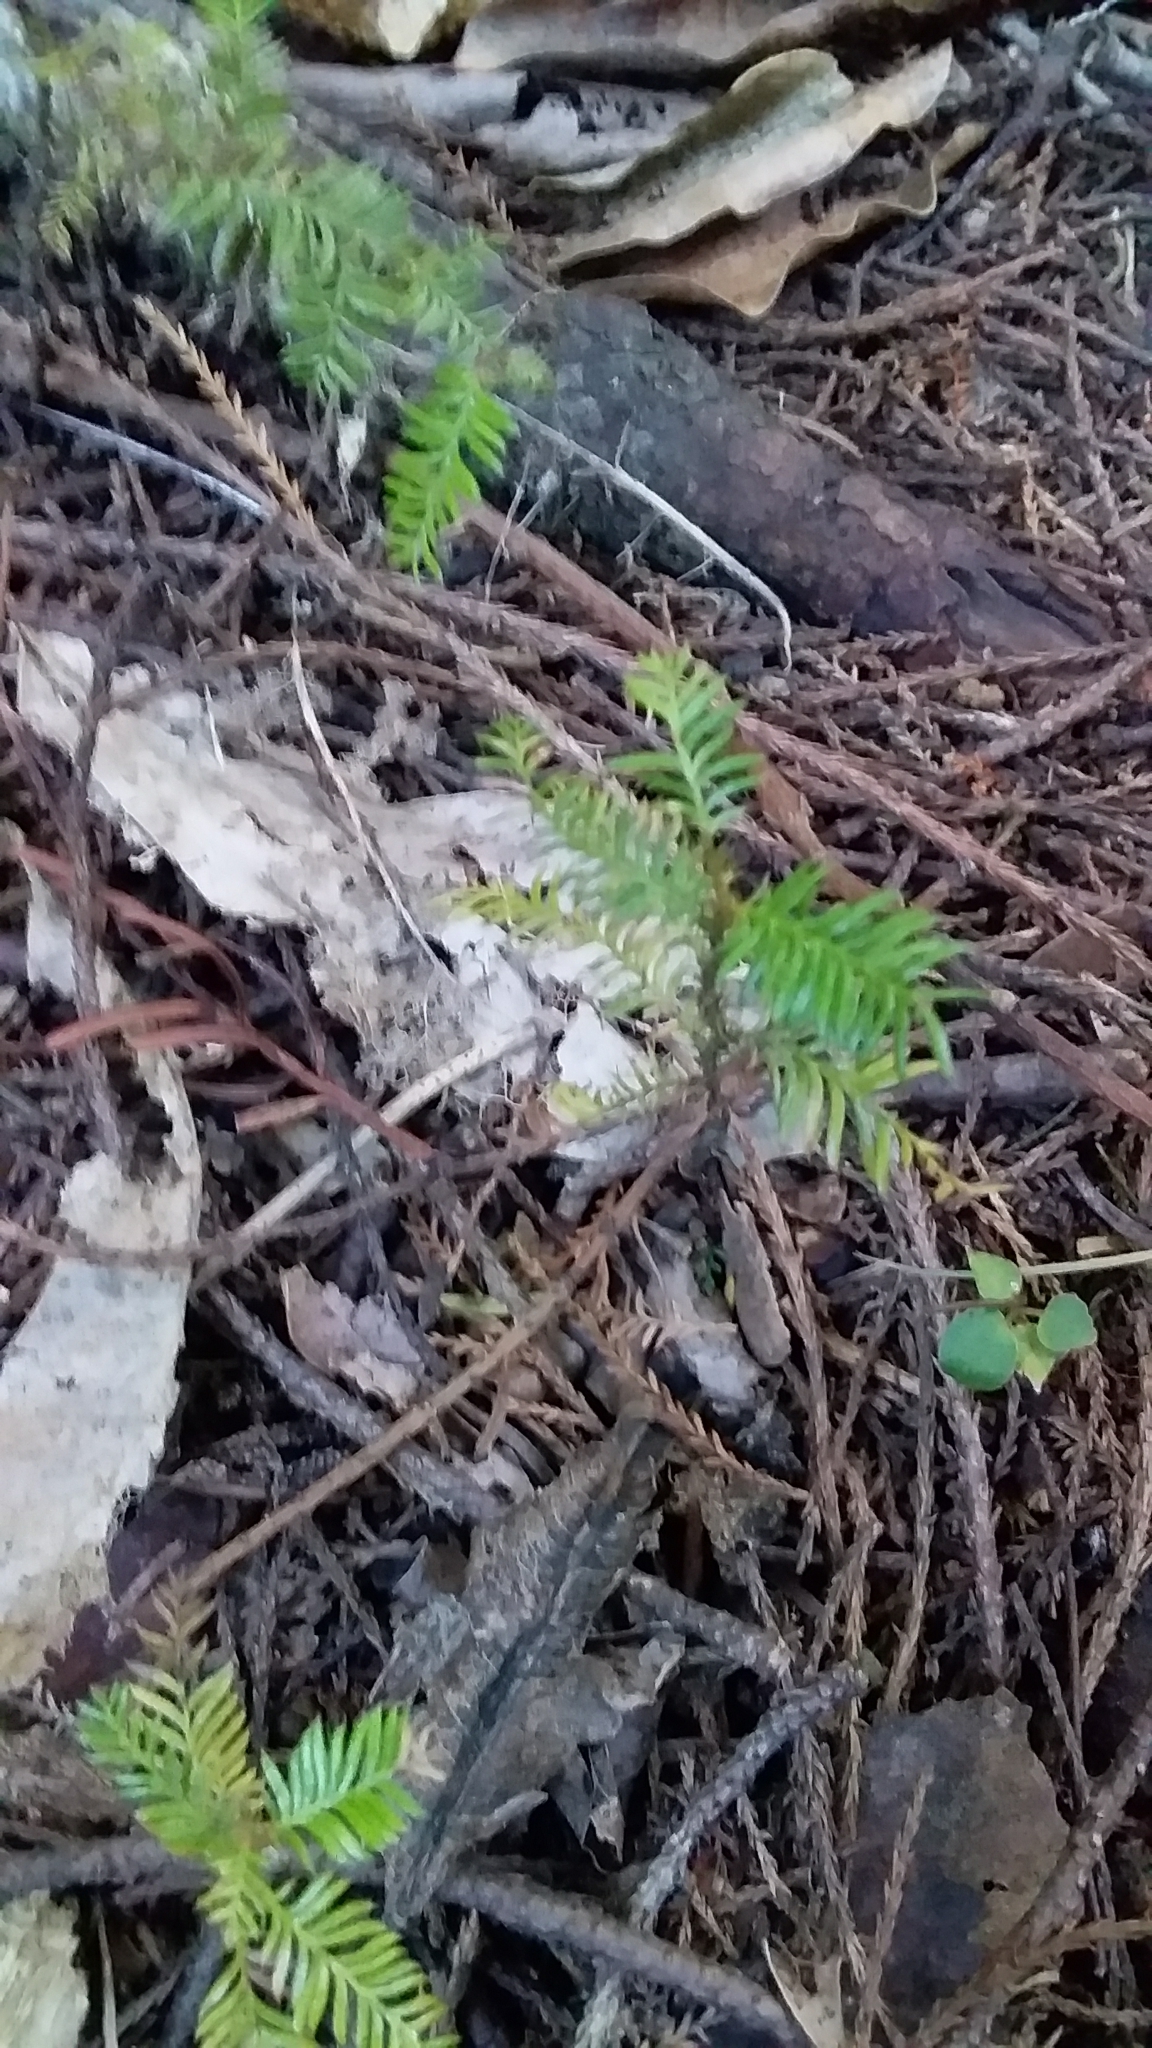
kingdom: Plantae
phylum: Tracheophyta
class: Pinopsida
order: Pinales
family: Podocarpaceae
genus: Dacrycarpus
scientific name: Dacrycarpus dacrydioides
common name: White pine
